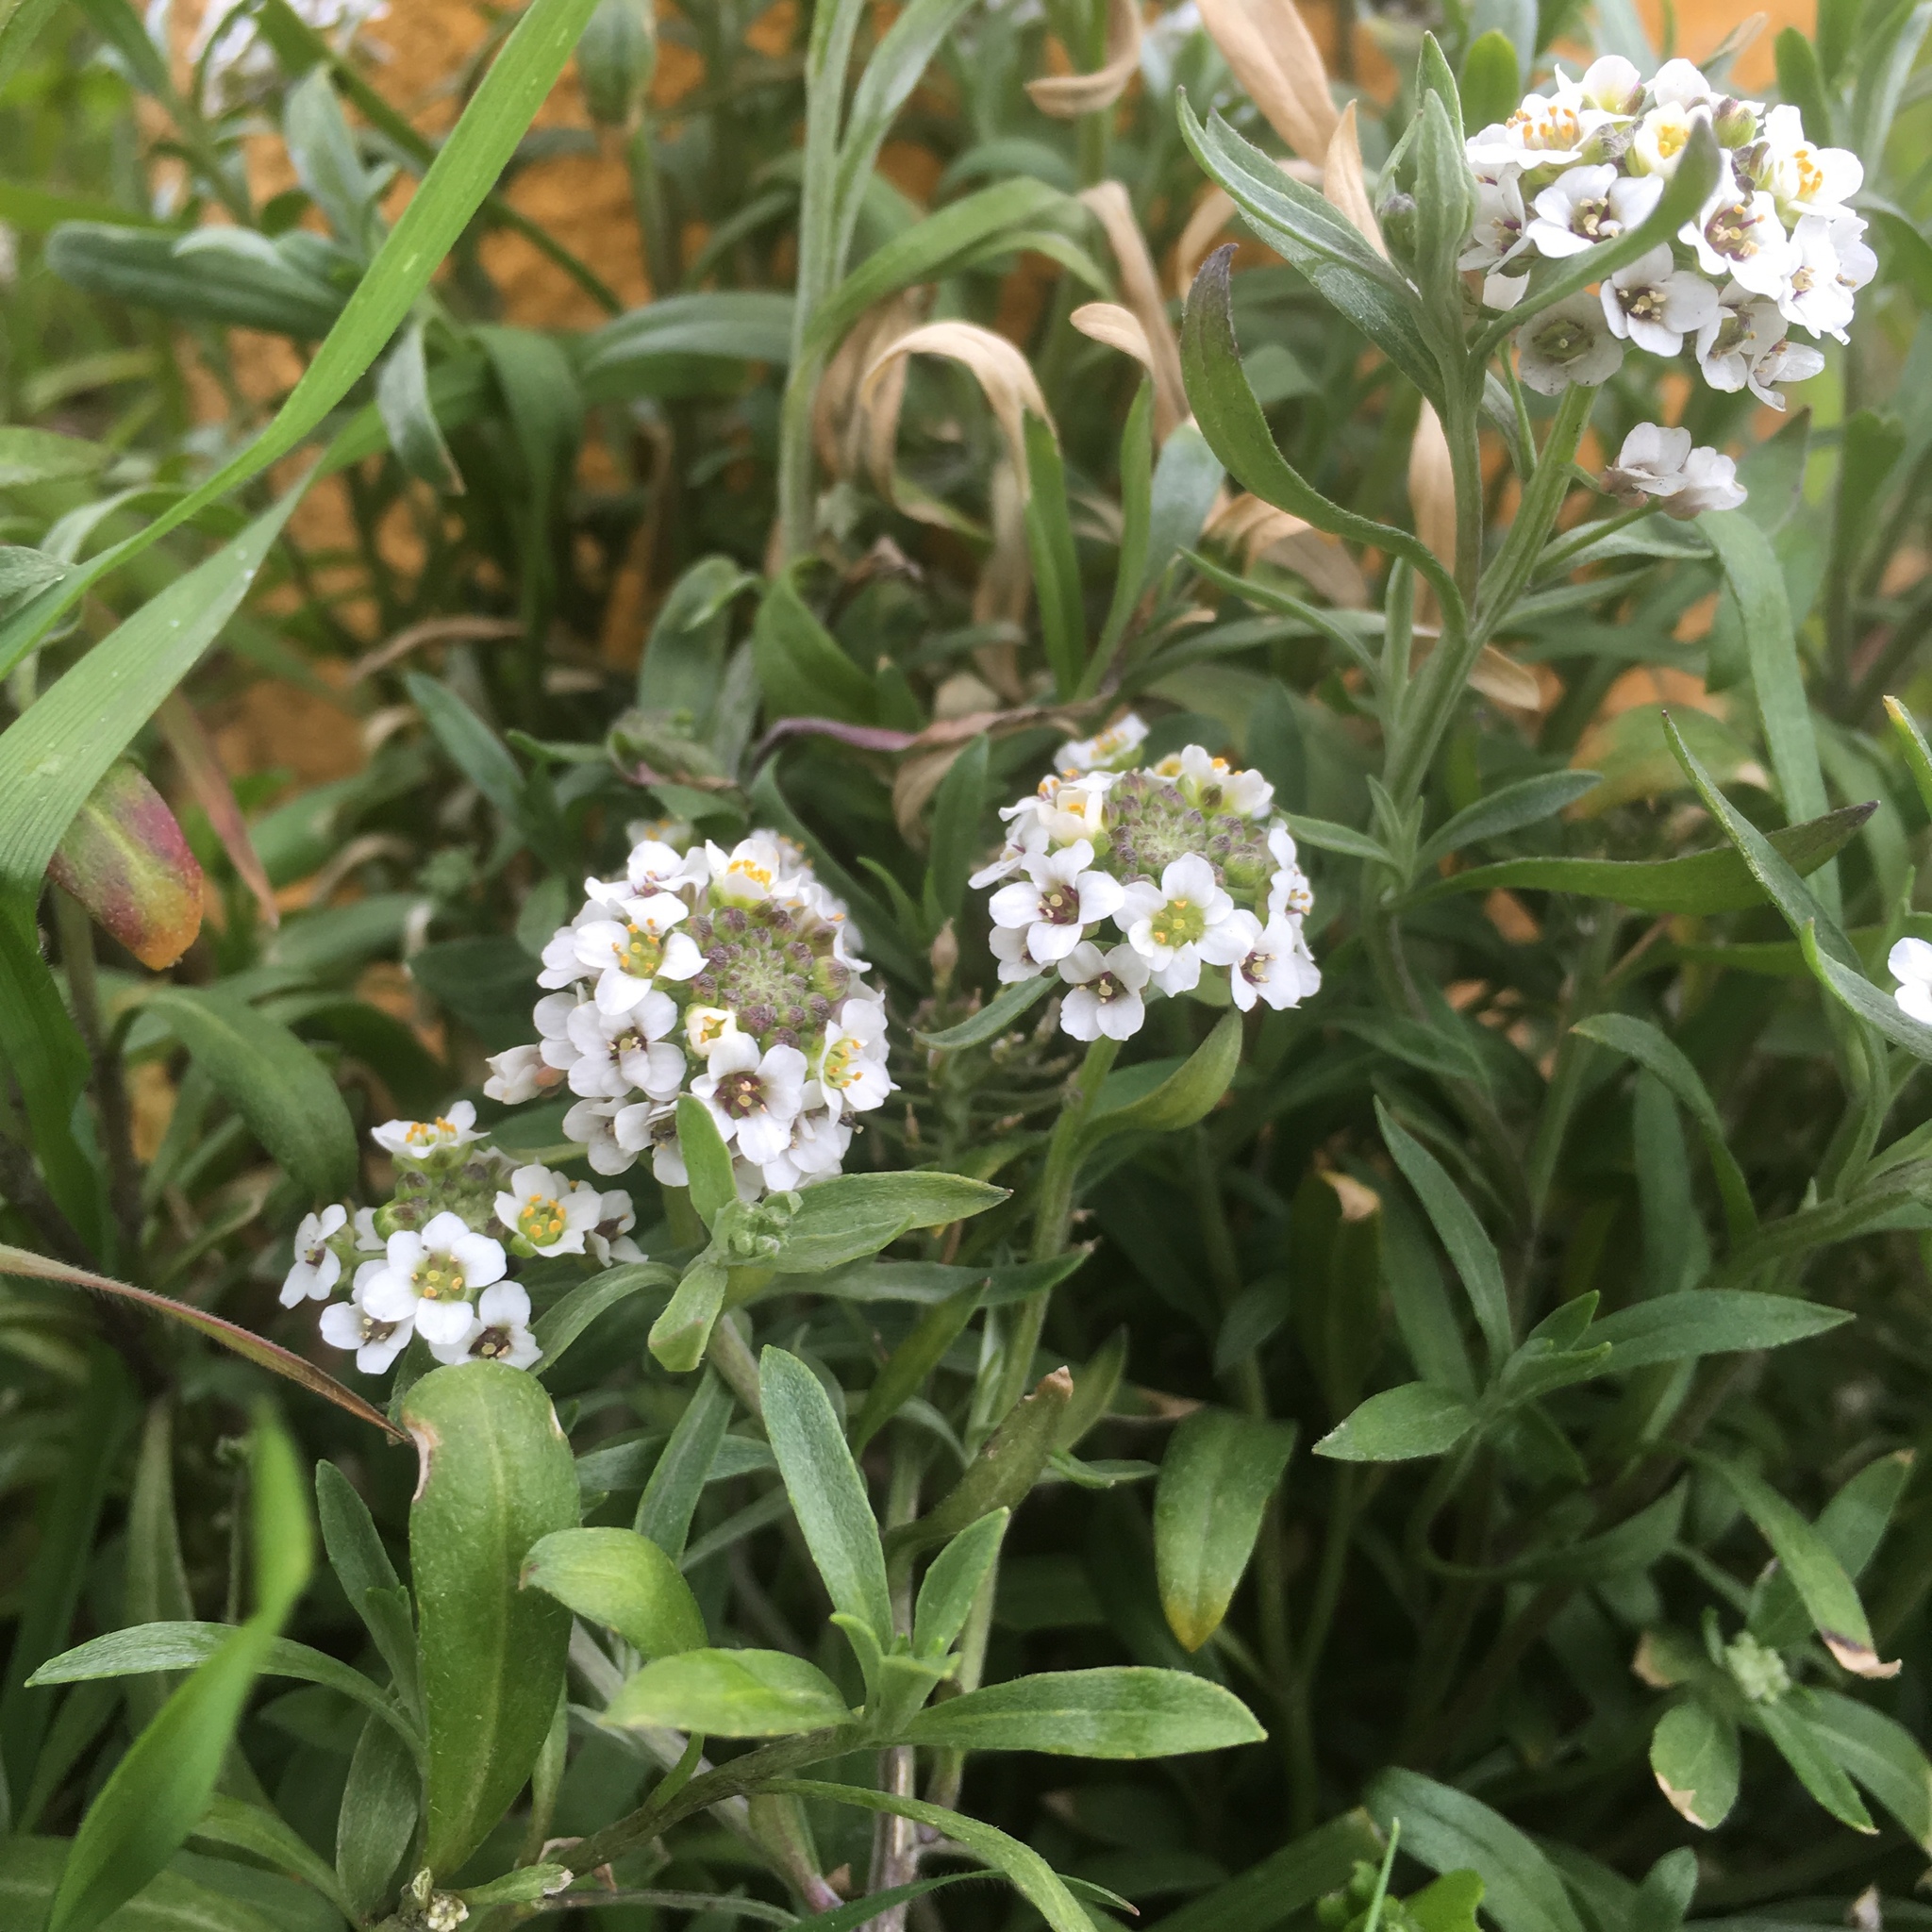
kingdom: Plantae
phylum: Tracheophyta
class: Magnoliopsida
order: Brassicales
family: Brassicaceae
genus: Lobularia
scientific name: Lobularia maritima
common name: Sweet alison
